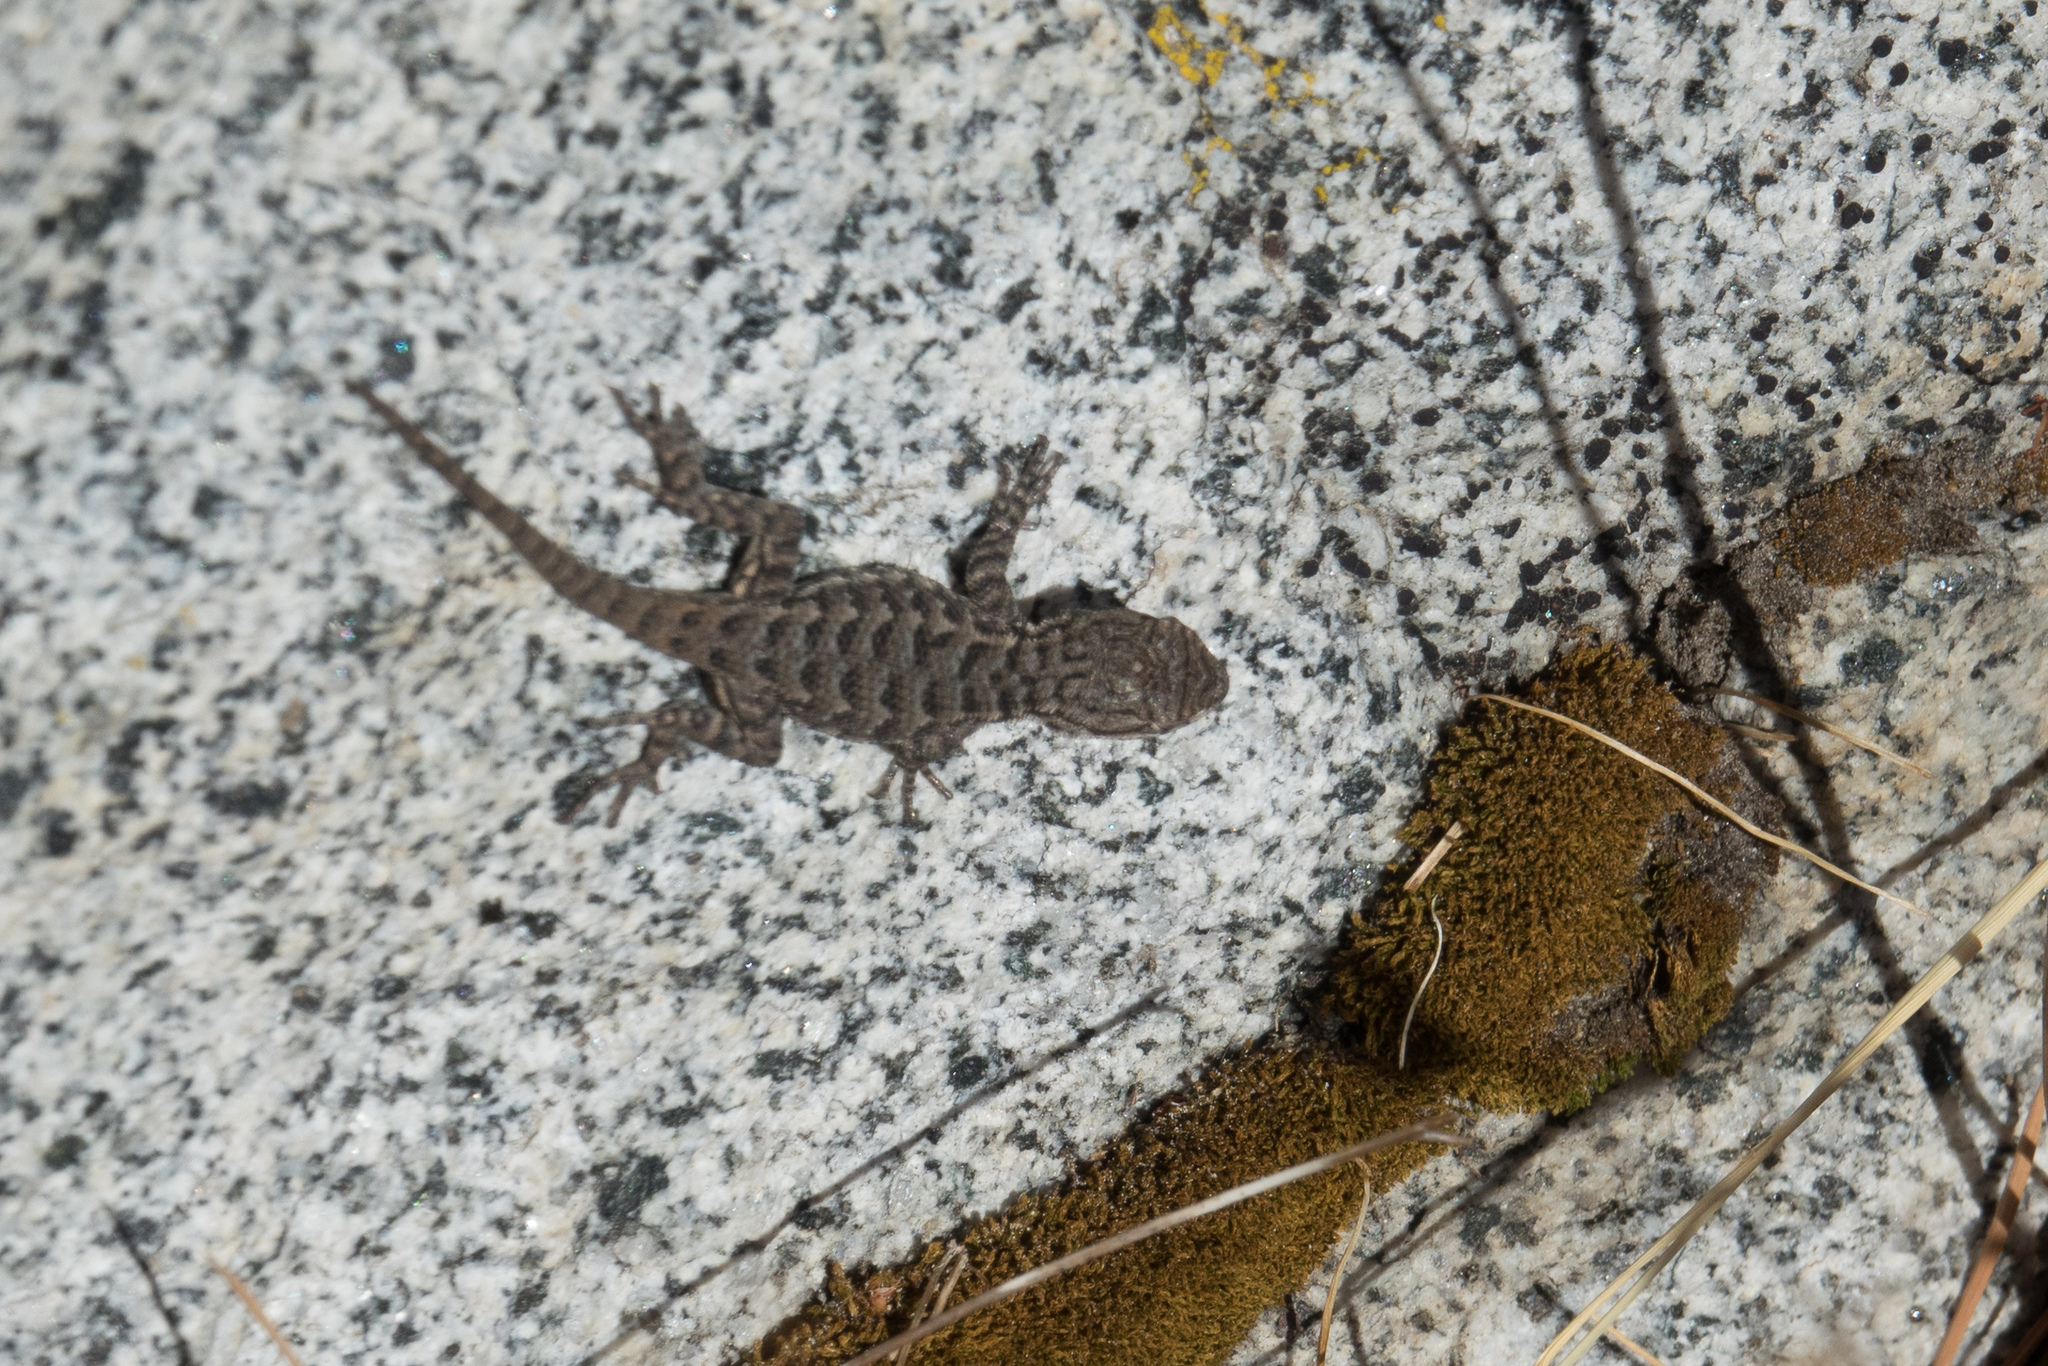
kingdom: Animalia
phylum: Chordata
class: Squamata
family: Phrynosomatidae
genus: Sceloporus
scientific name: Sceloporus occidentalis
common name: Western fence lizard
